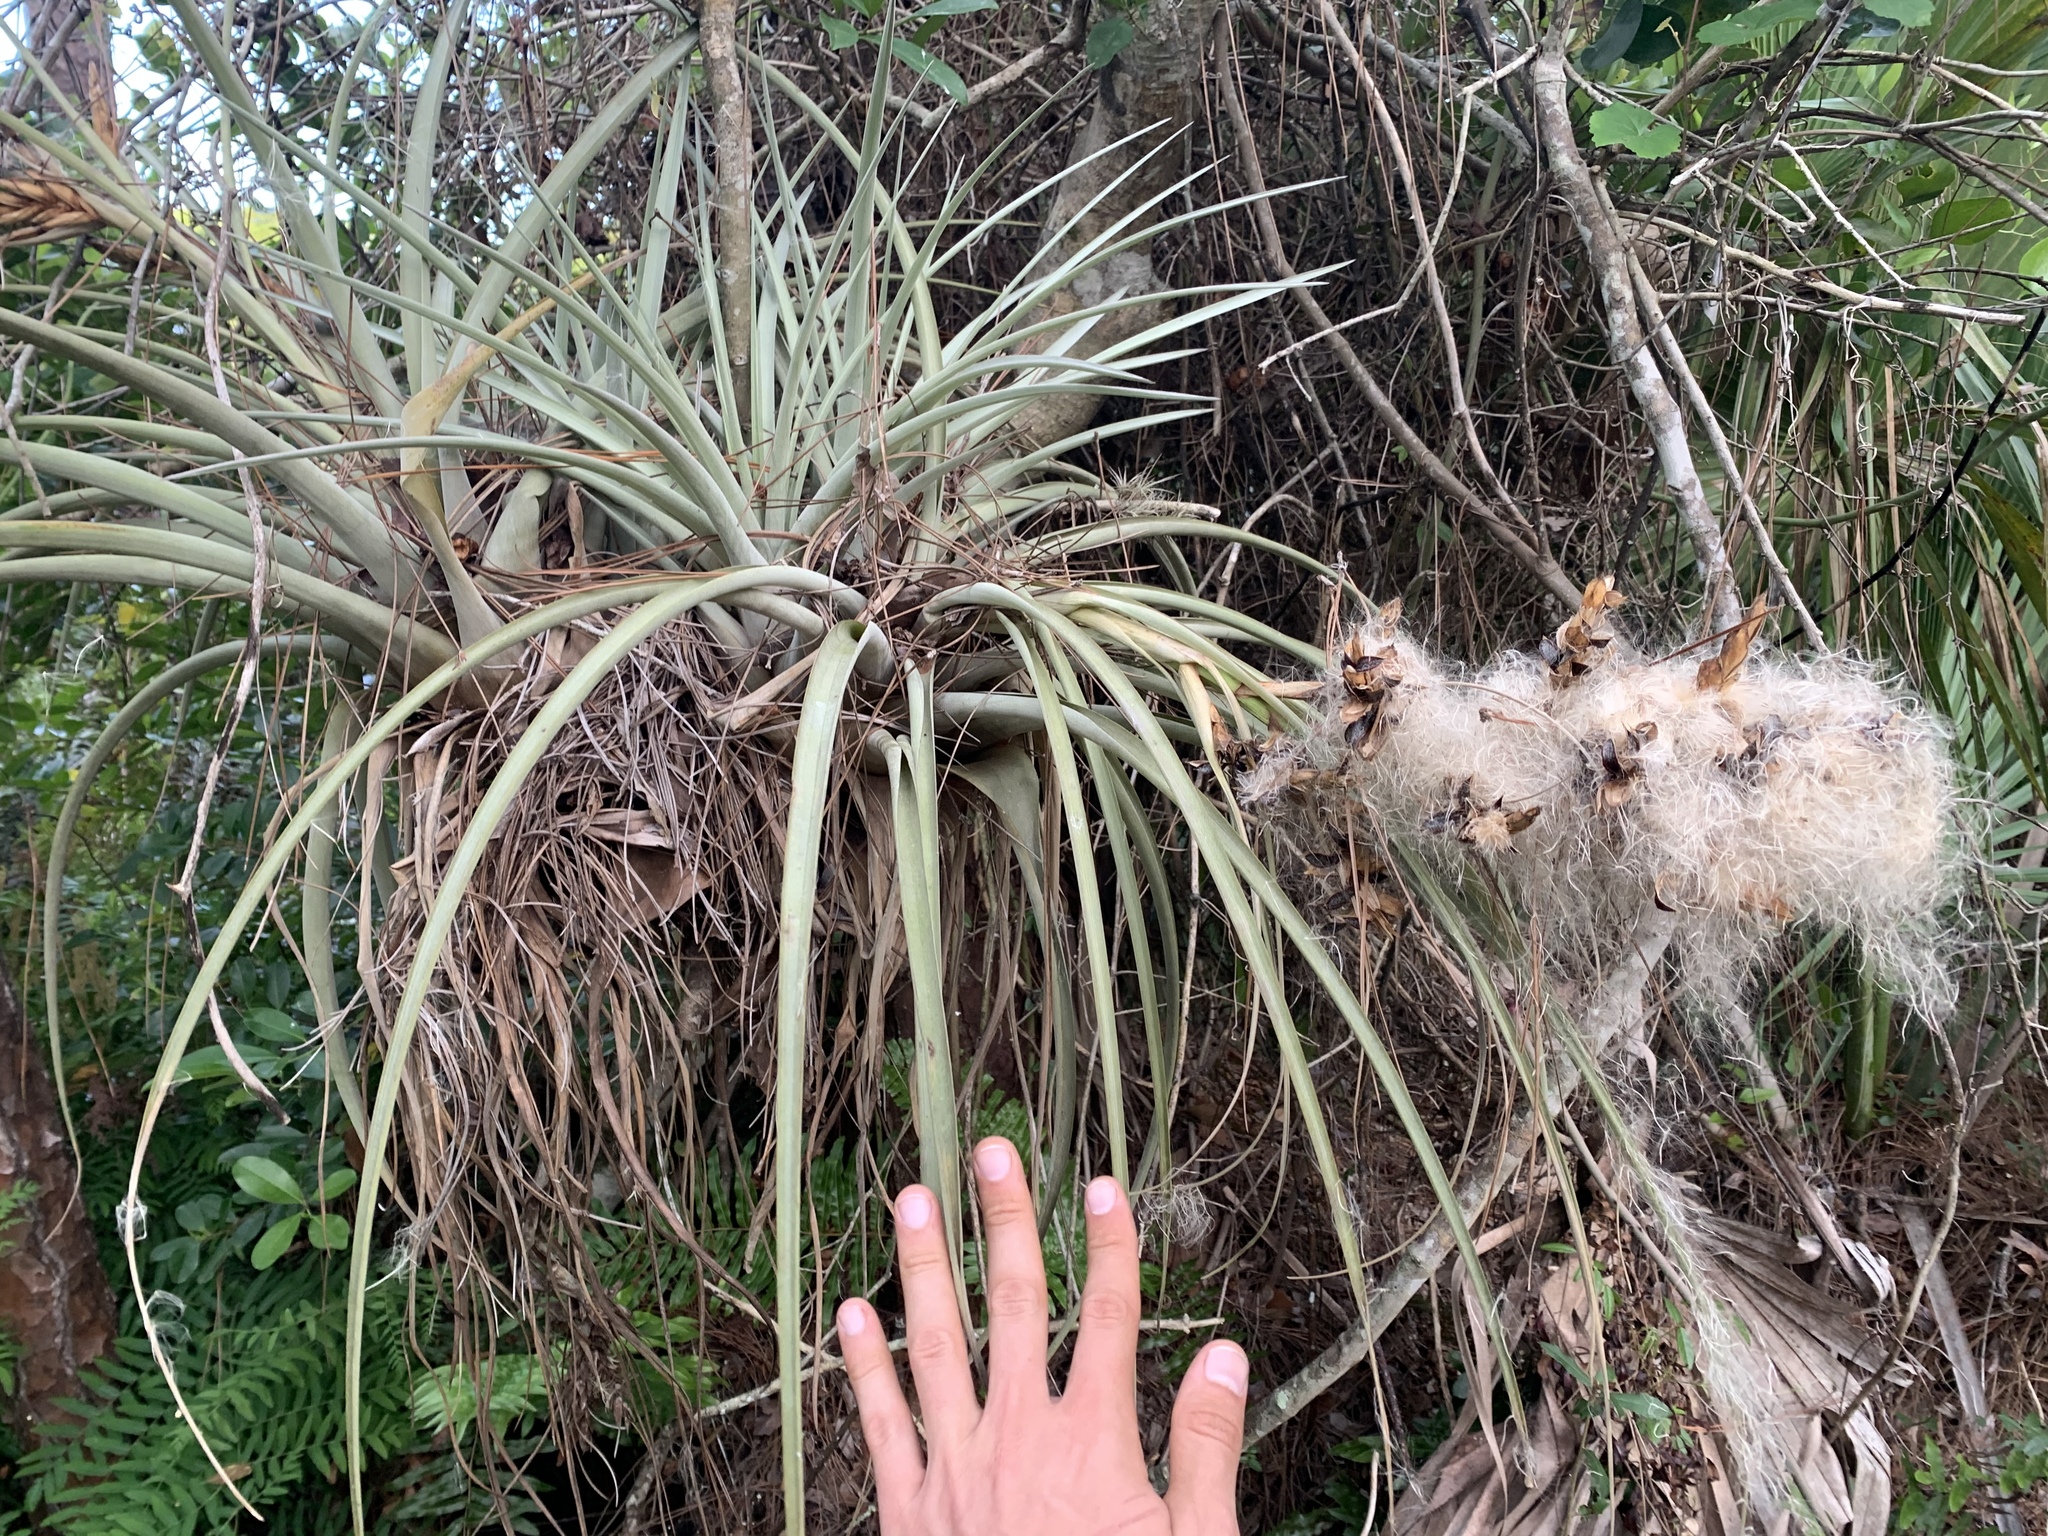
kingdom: Plantae
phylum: Tracheophyta
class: Liliopsida
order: Poales
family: Bromeliaceae
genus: Tillandsia
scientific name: Tillandsia fasciculata
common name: Giant airplant
